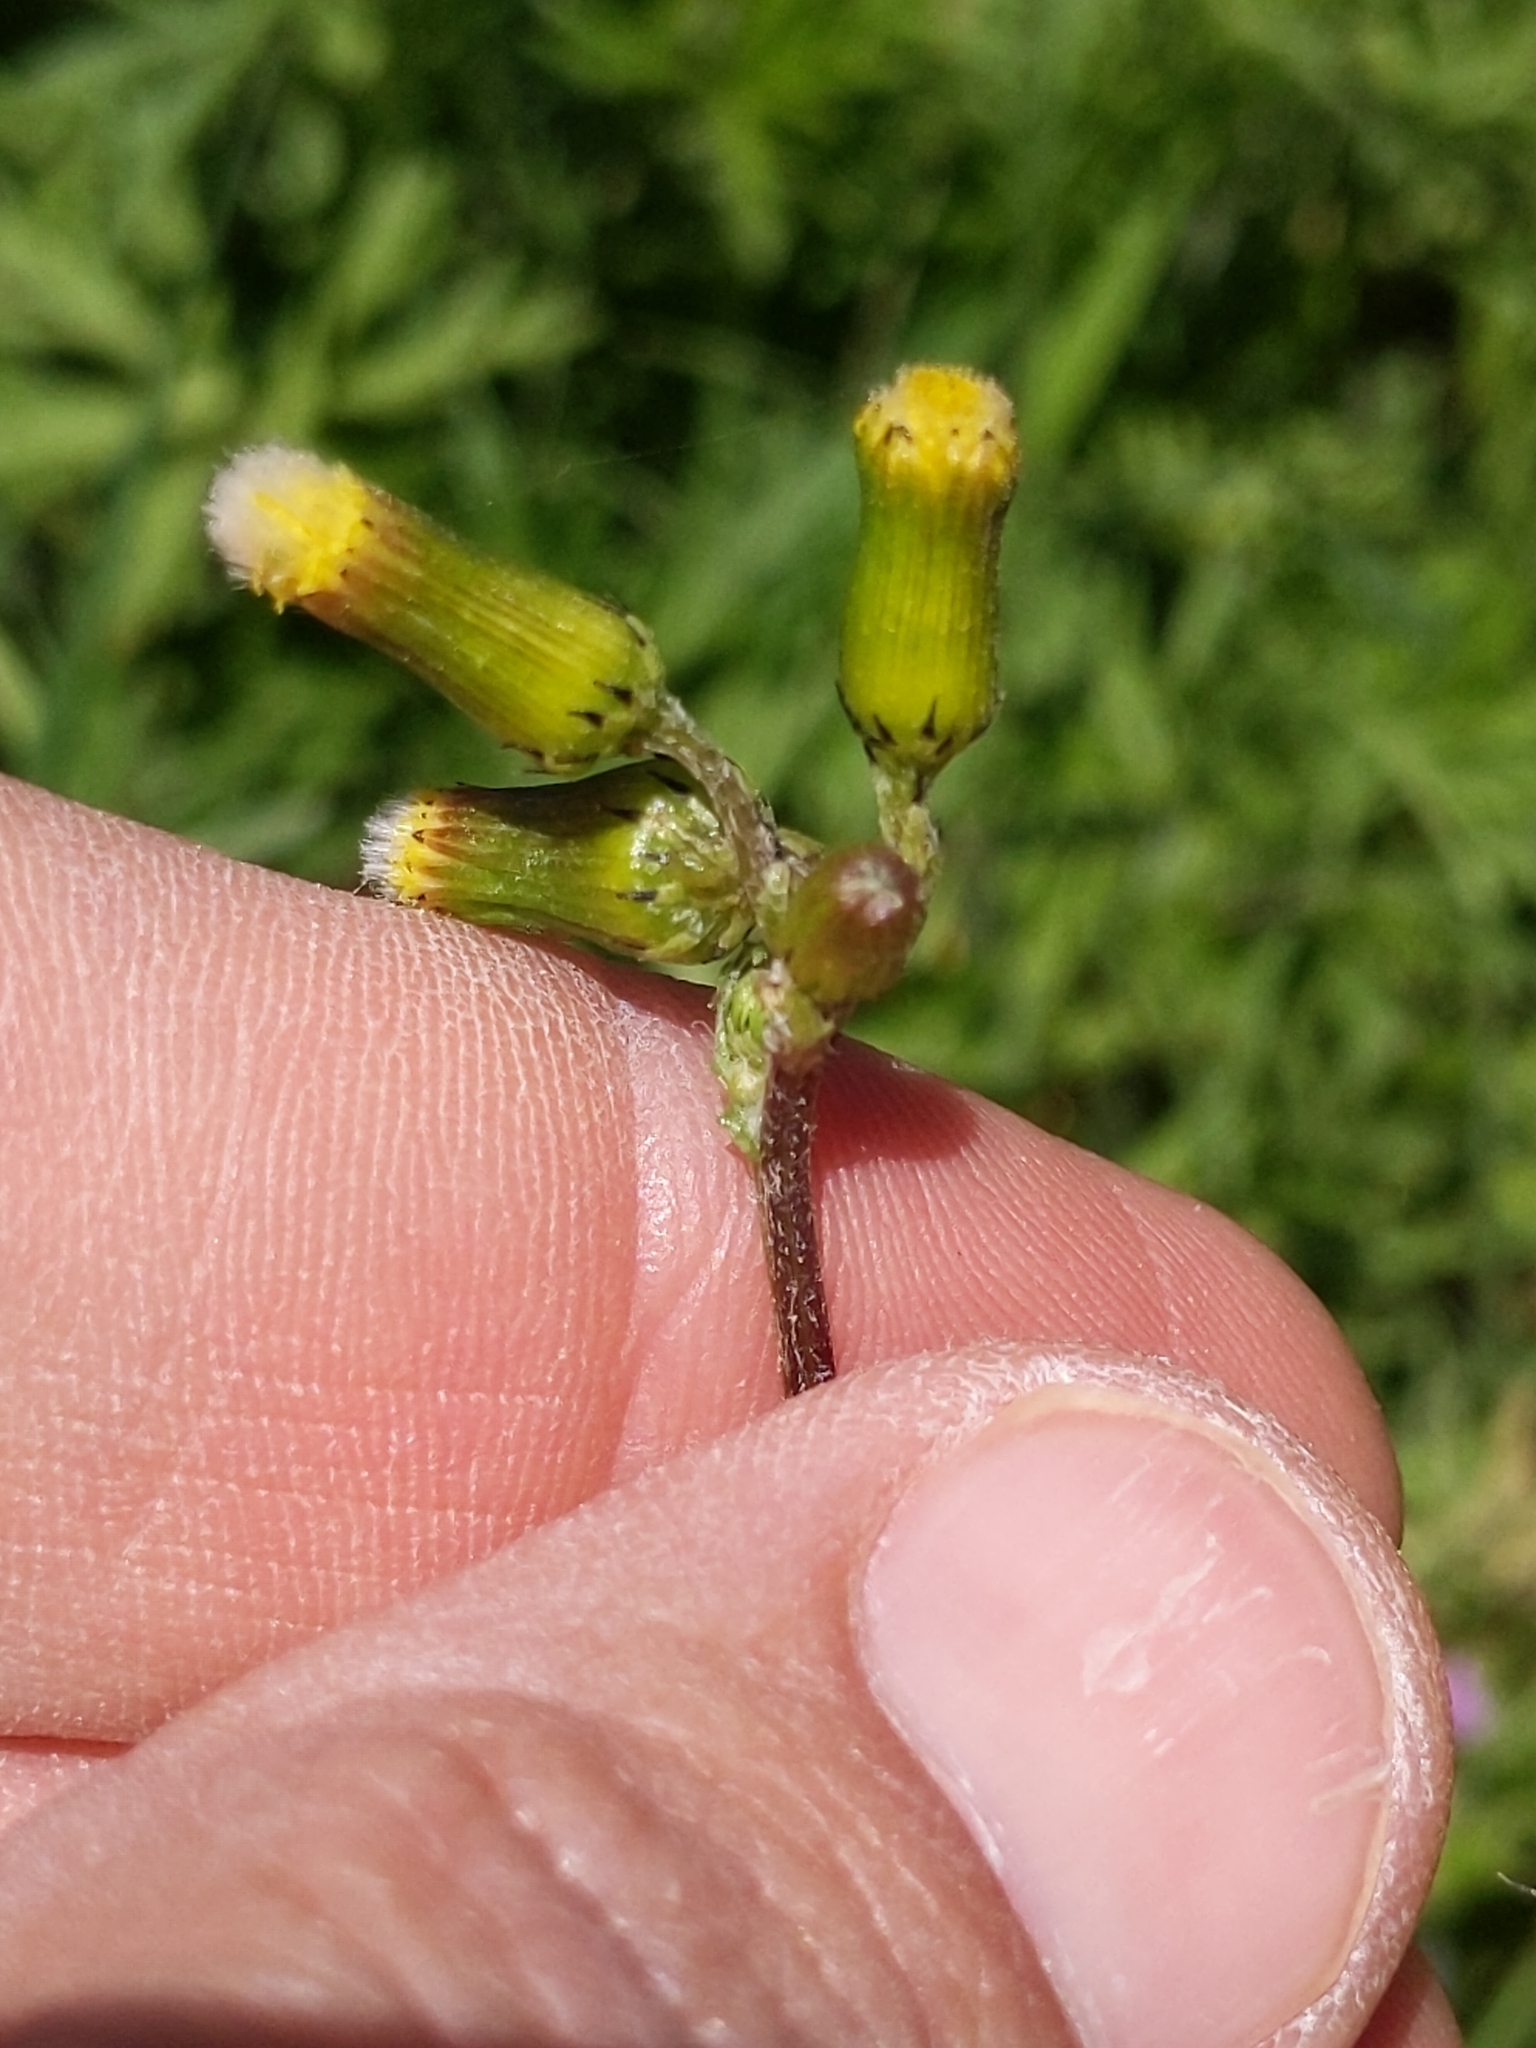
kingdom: Plantae
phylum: Tracheophyta
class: Magnoliopsida
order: Asterales
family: Asteraceae
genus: Senecio
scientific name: Senecio vulgaris
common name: Old-man-in-the-spring
